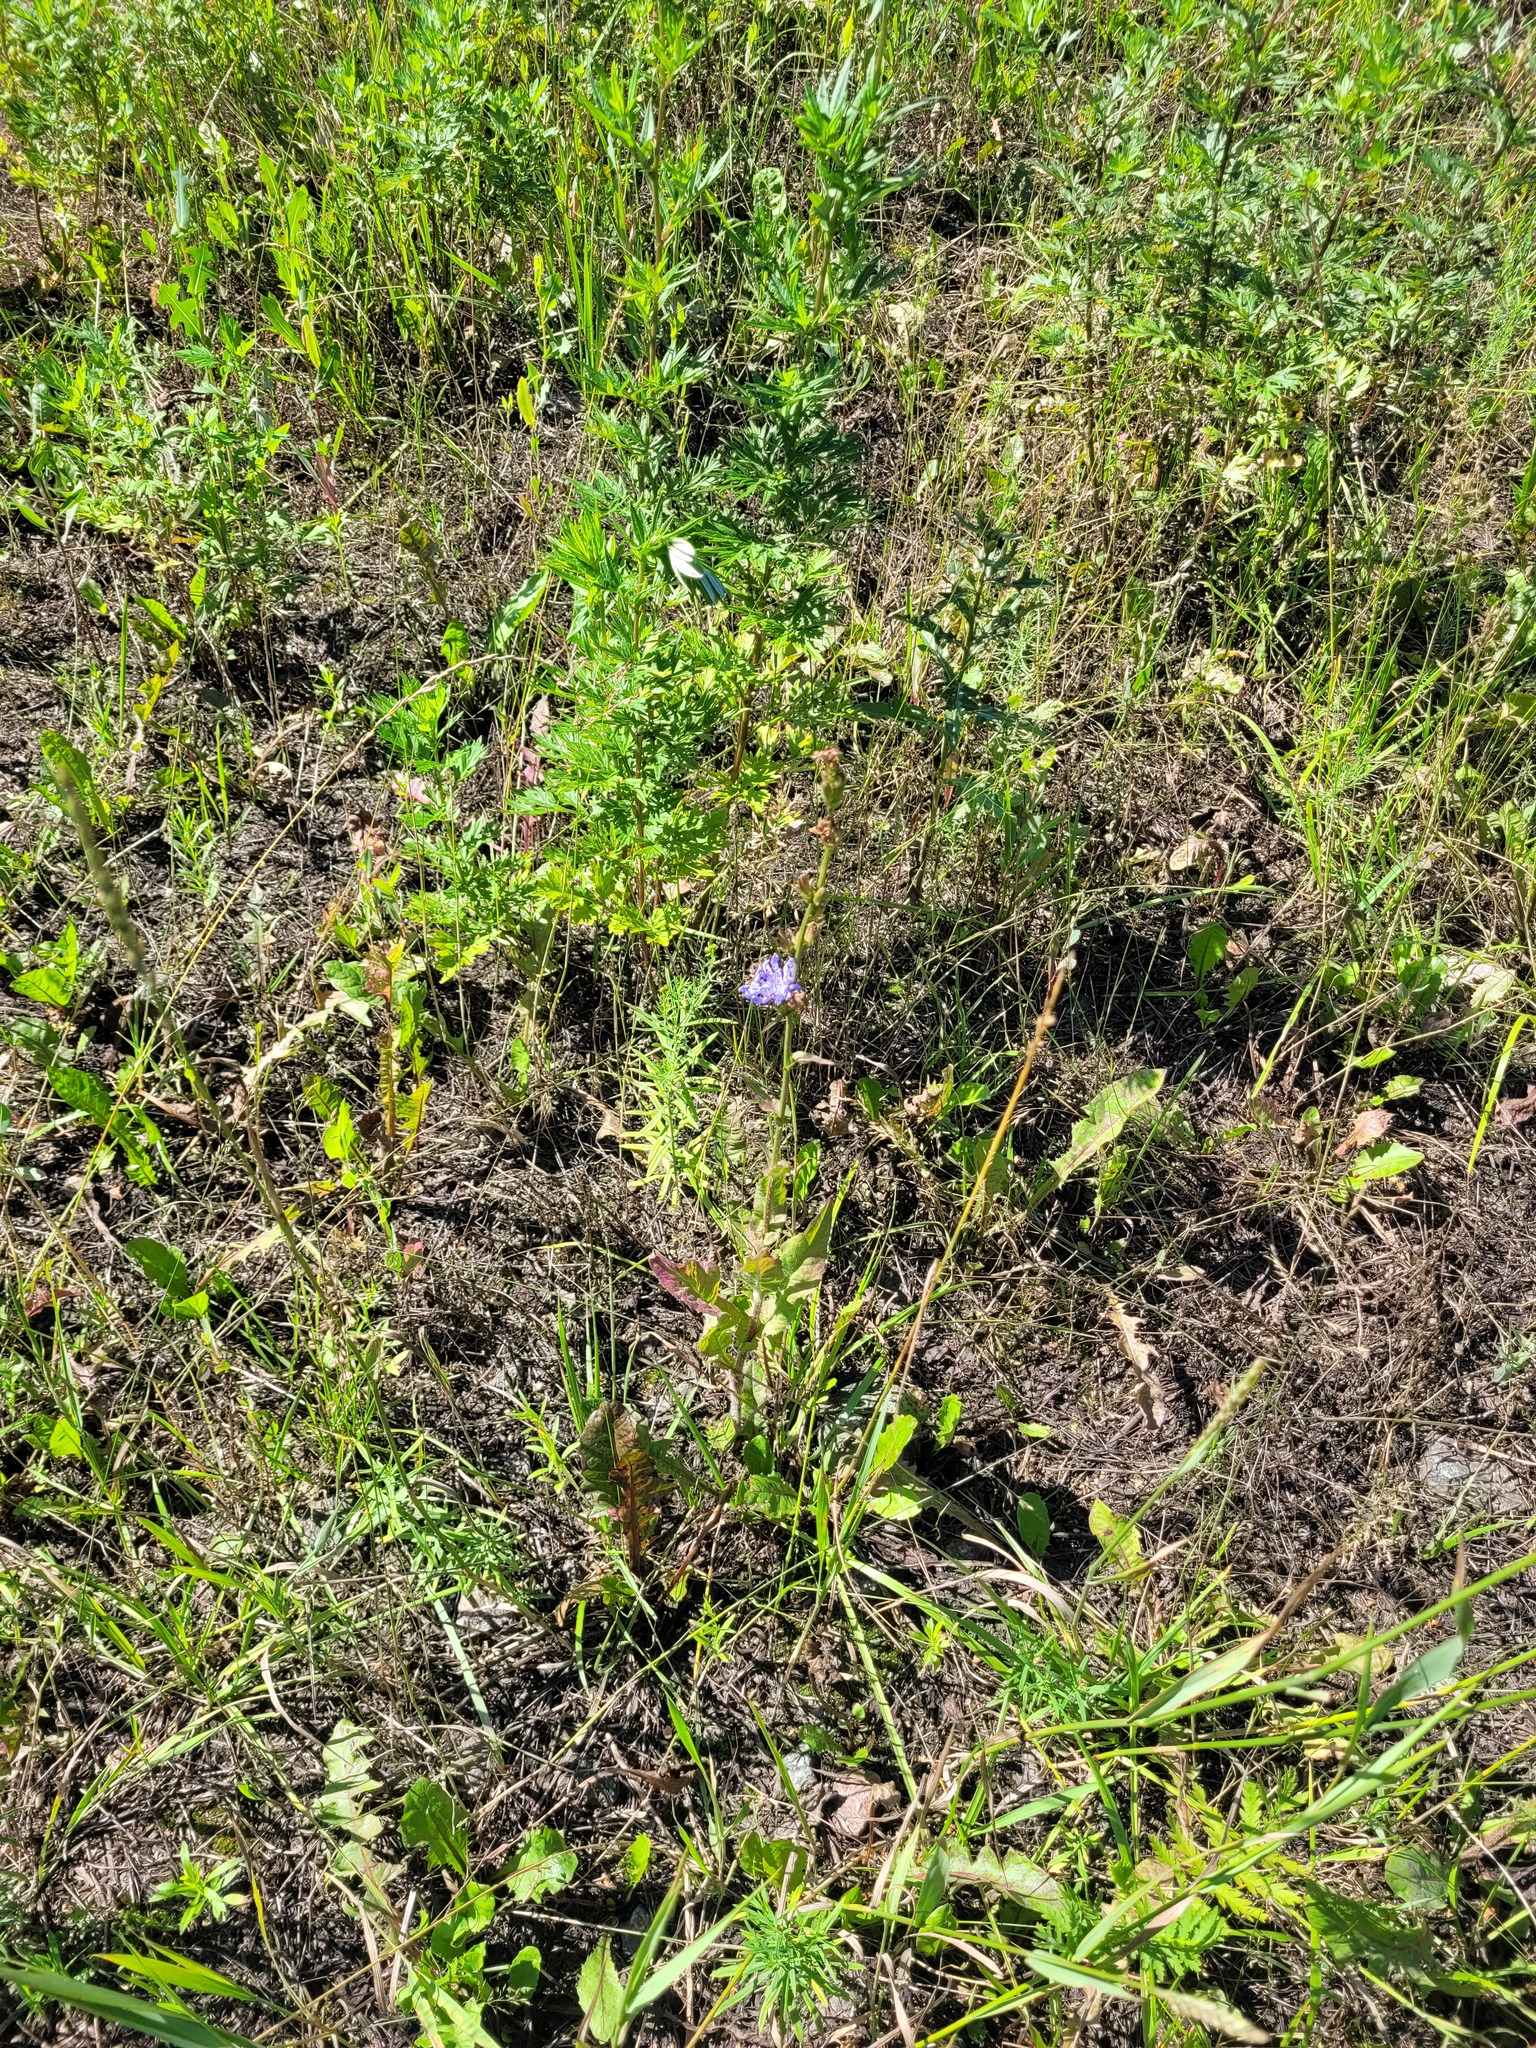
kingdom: Plantae
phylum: Tracheophyta
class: Magnoliopsida
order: Asterales
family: Asteraceae
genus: Cichorium
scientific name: Cichorium intybus
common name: Chicory
